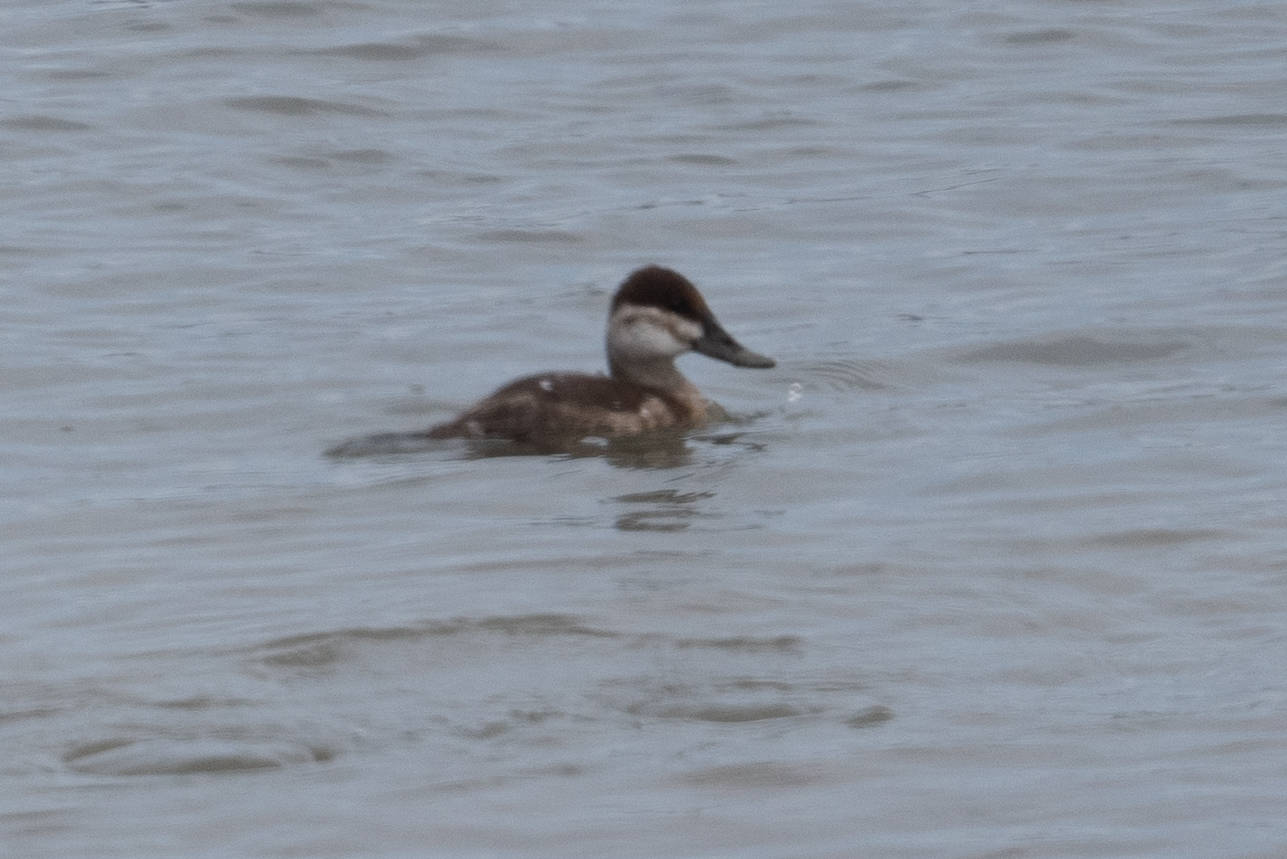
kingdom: Animalia
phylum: Chordata
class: Aves
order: Anseriformes
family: Anatidae
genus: Oxyura
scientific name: Oxyura jamaicensis
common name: Ruddy duck
